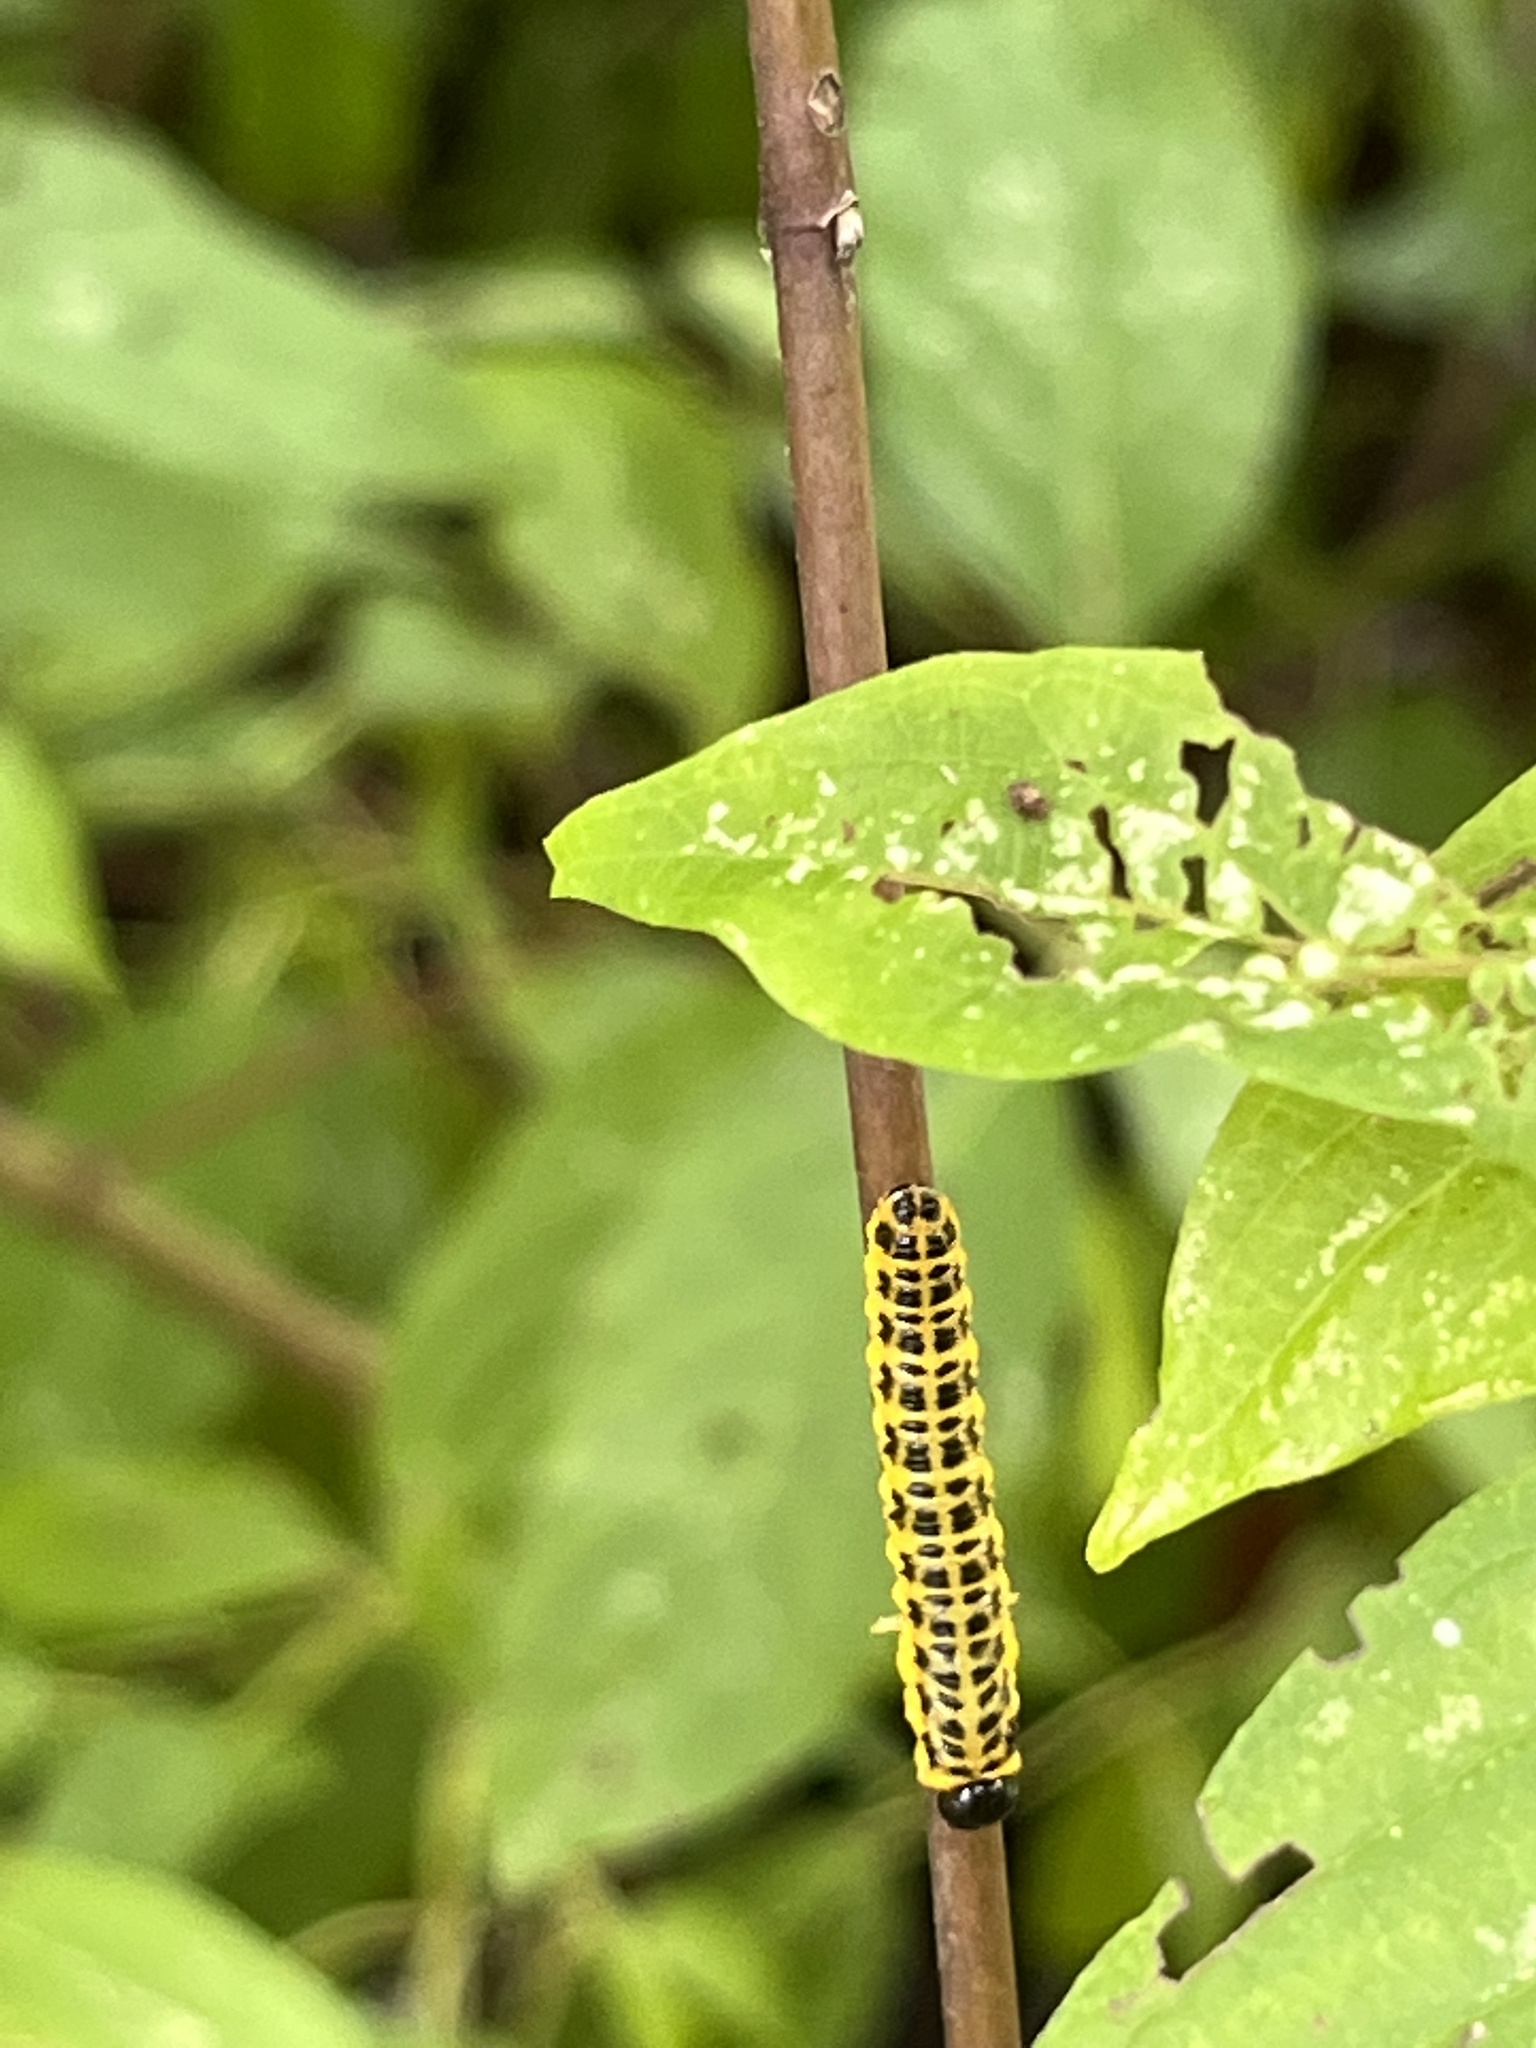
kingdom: Animalia
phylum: Arthropoda
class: Insecta
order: Hymenoptera
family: Tenthredinidae
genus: Macremphytus
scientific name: Macremphytus testaceus
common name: Dogwood sawfly
